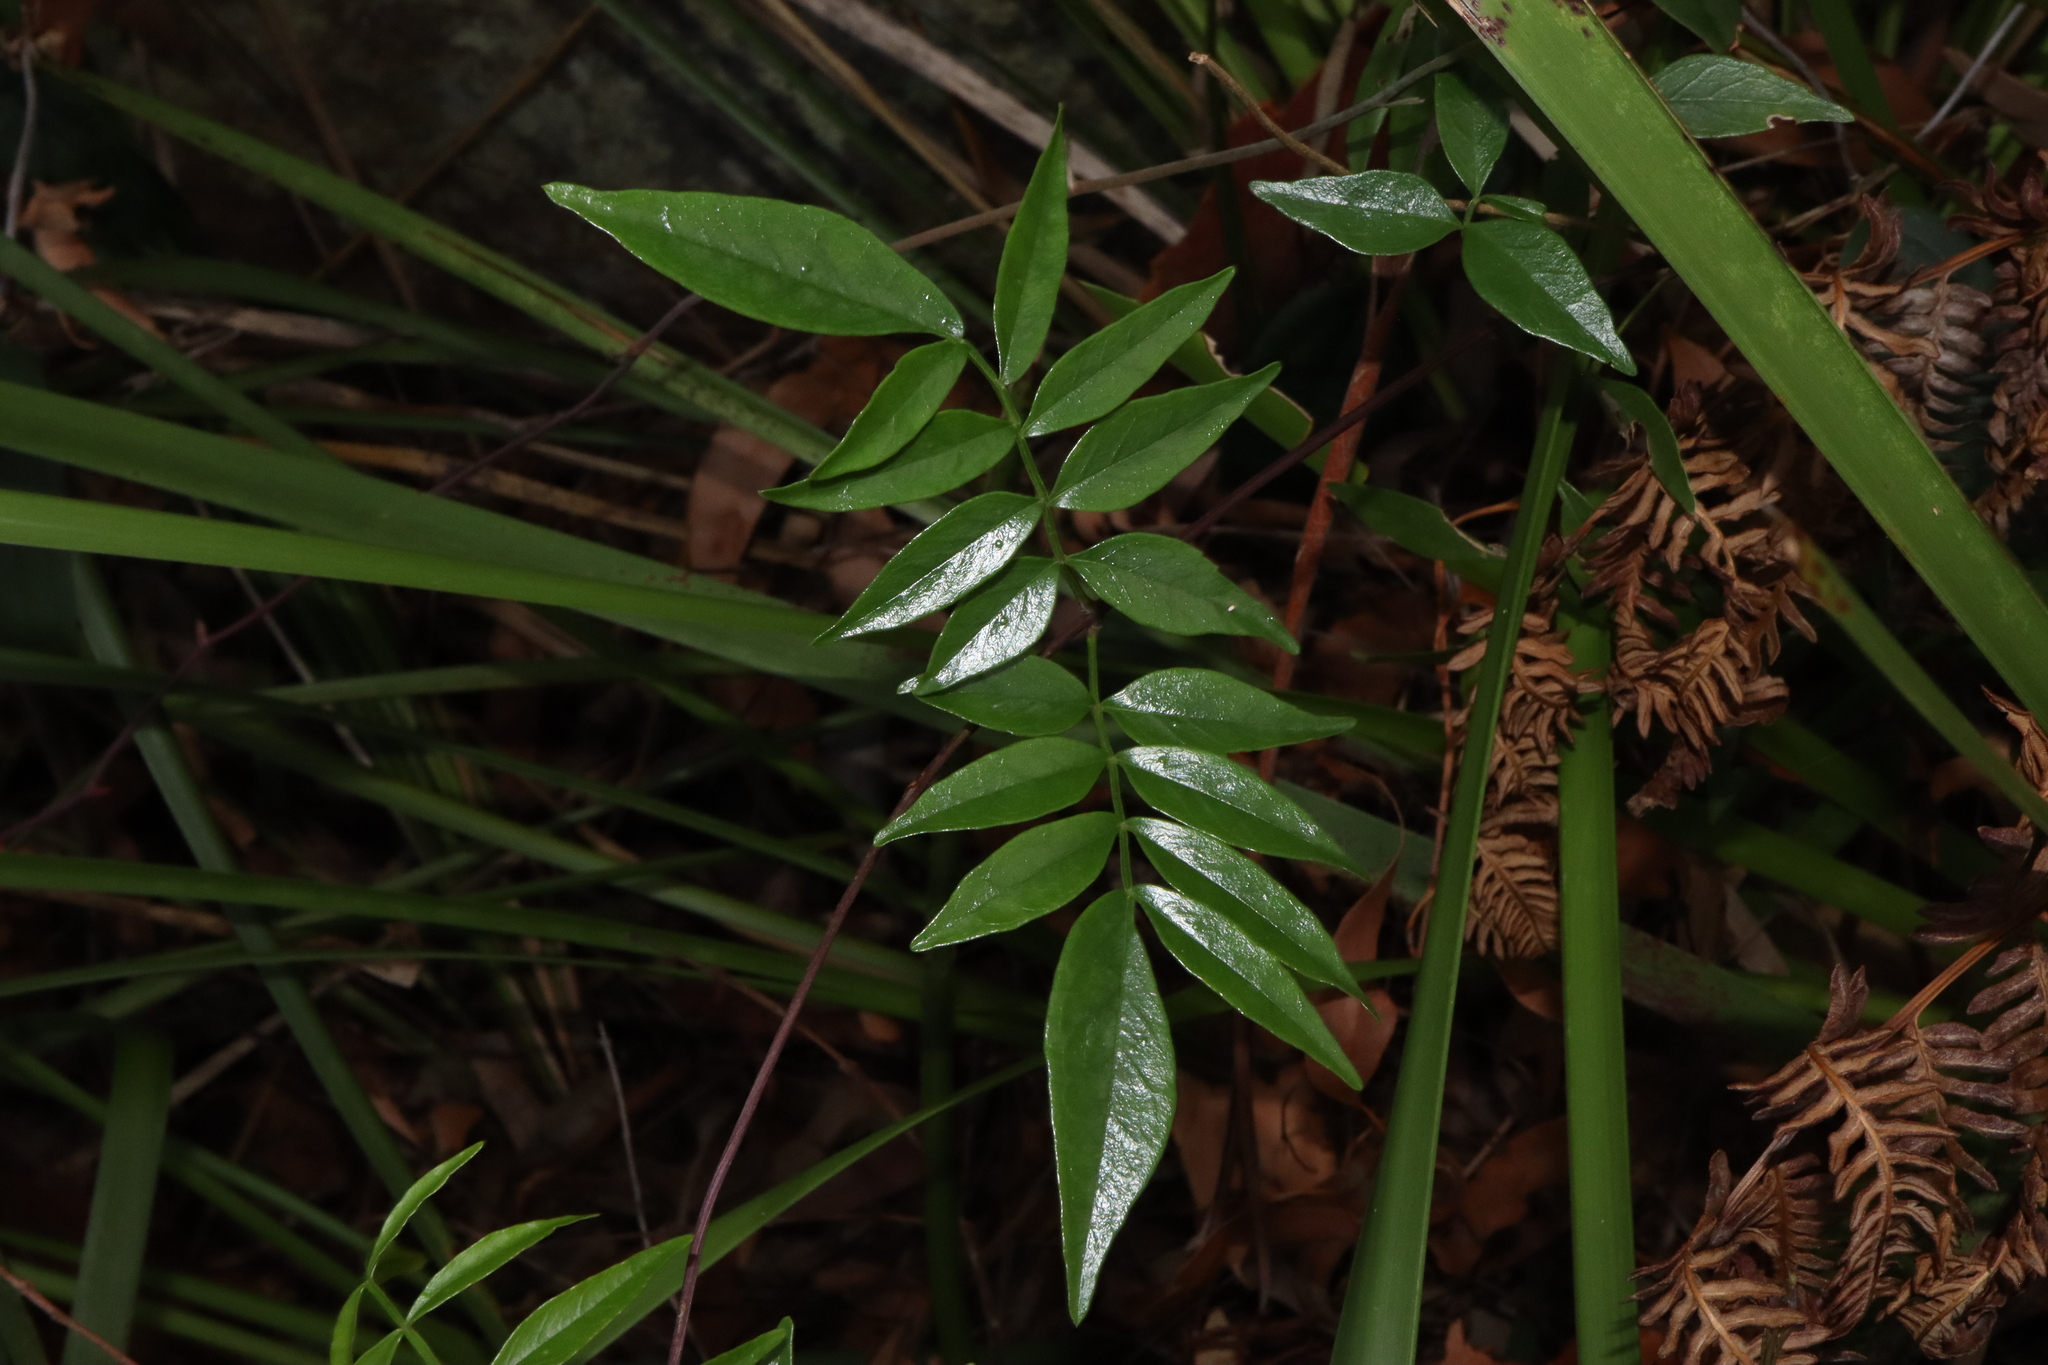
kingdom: Plantae
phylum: Tracheophyta
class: Magnoliopsida
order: Lamiales
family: Bignoniaceae
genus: Pandorea
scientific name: Pandorea pandorana
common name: Wonga-wonga-vine
